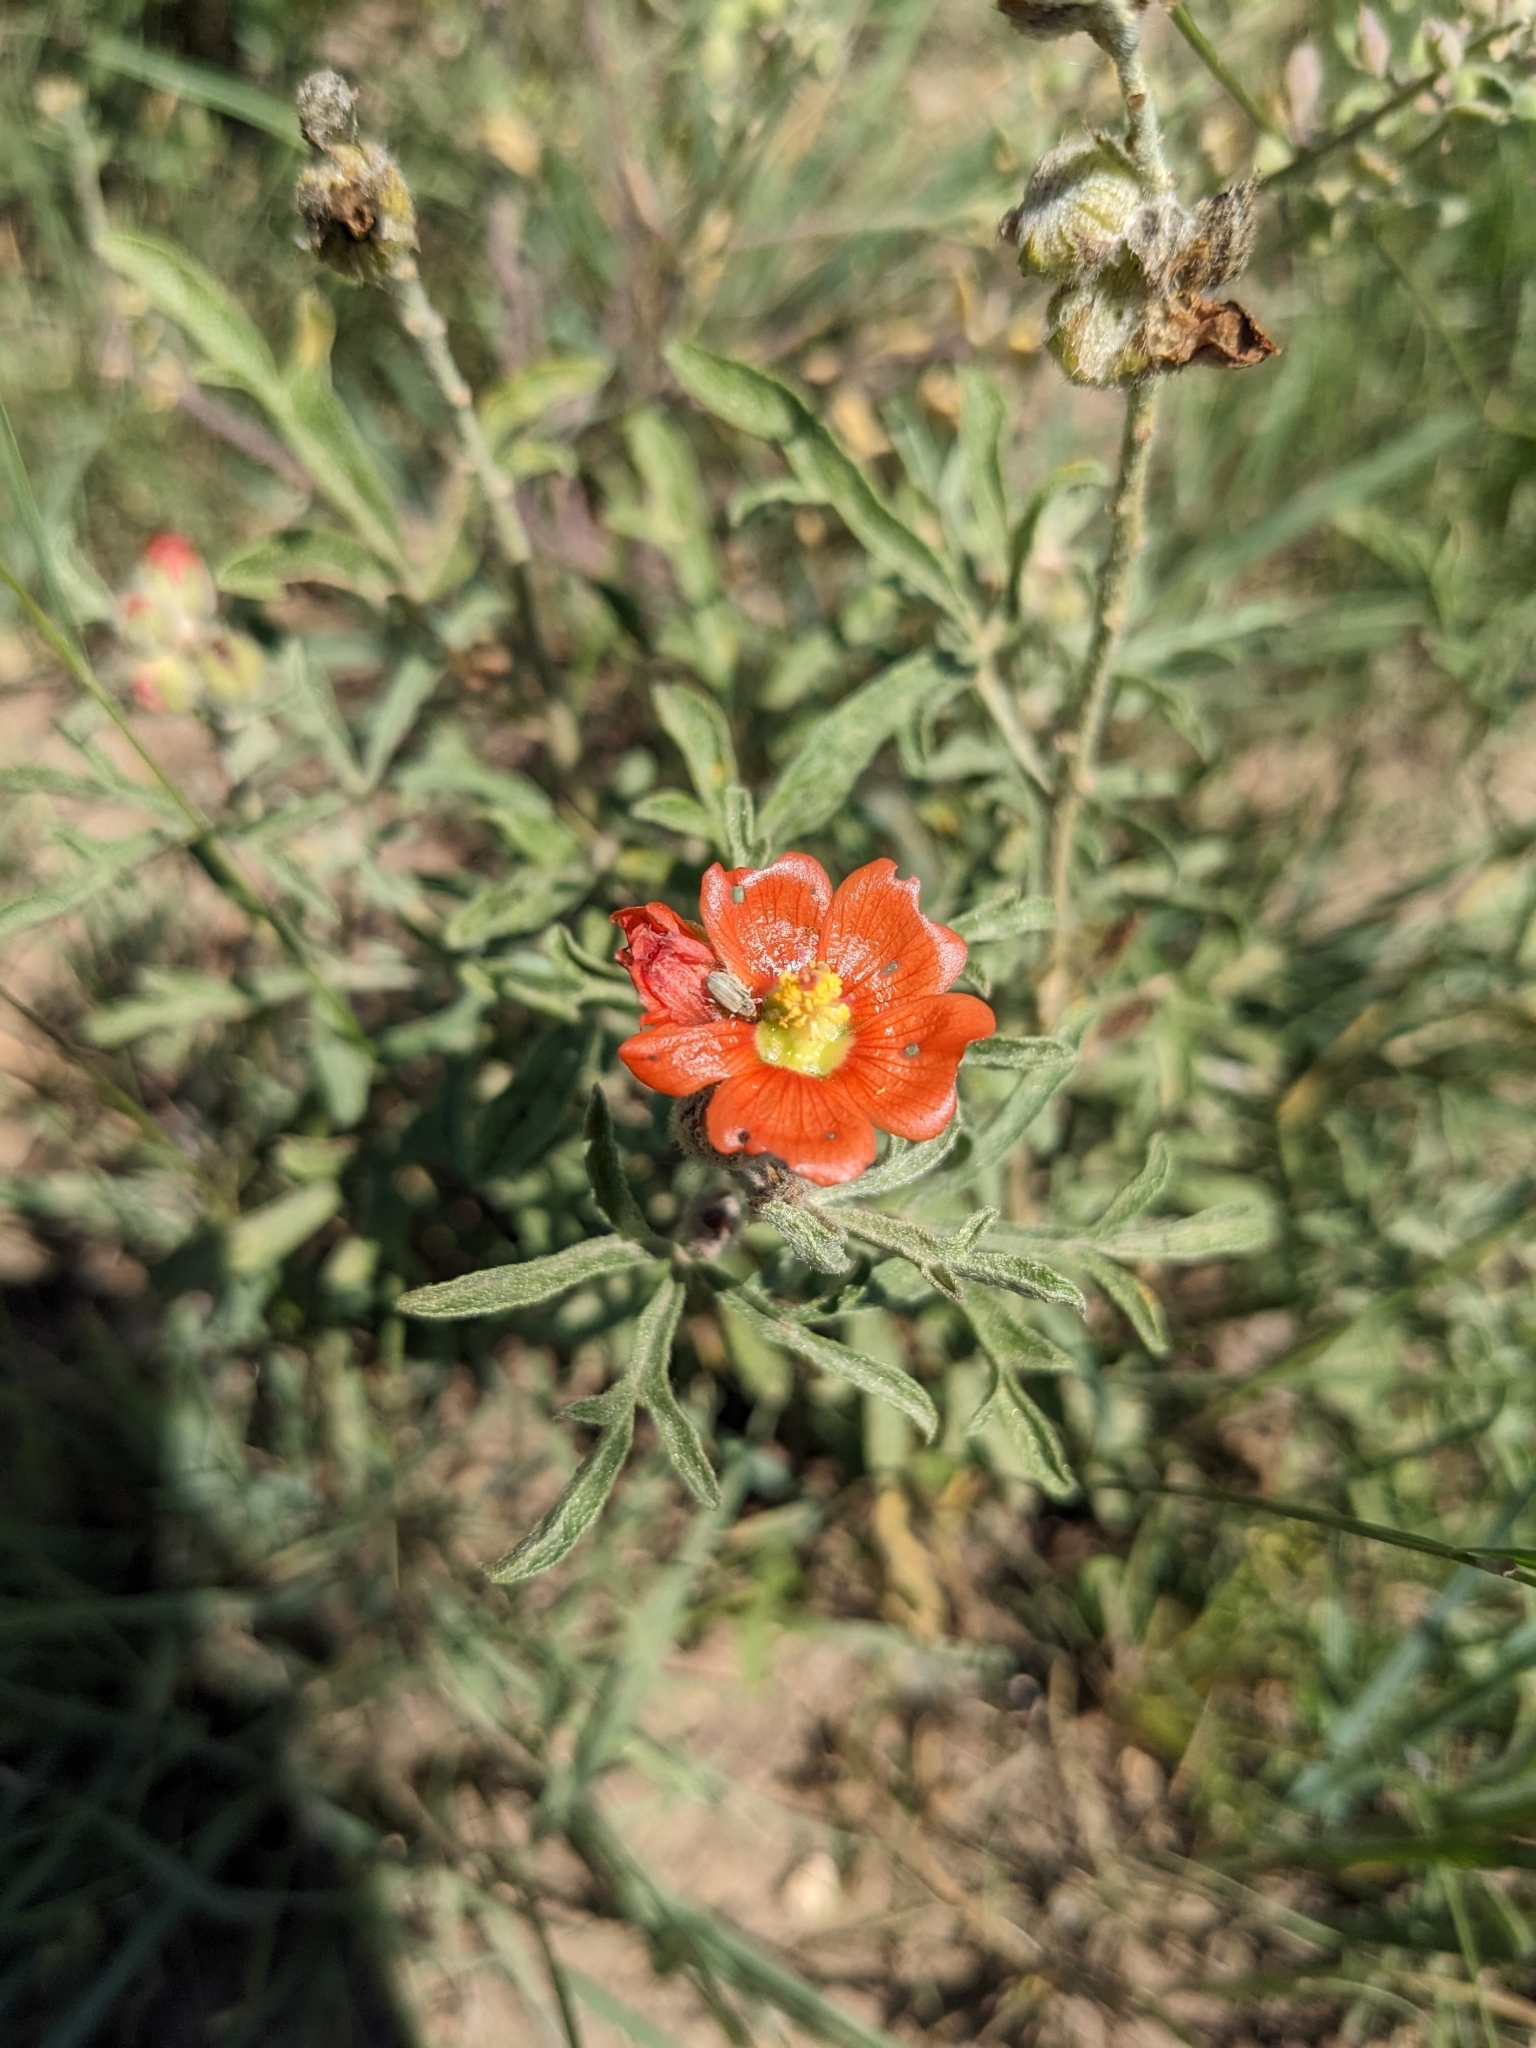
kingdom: Plantae
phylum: Tracheophyta
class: Magnoliopsida
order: Malvales
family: Malvaceae
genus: Sphaeralcea
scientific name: Sphaeralcea coccinea
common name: Moss-rose
